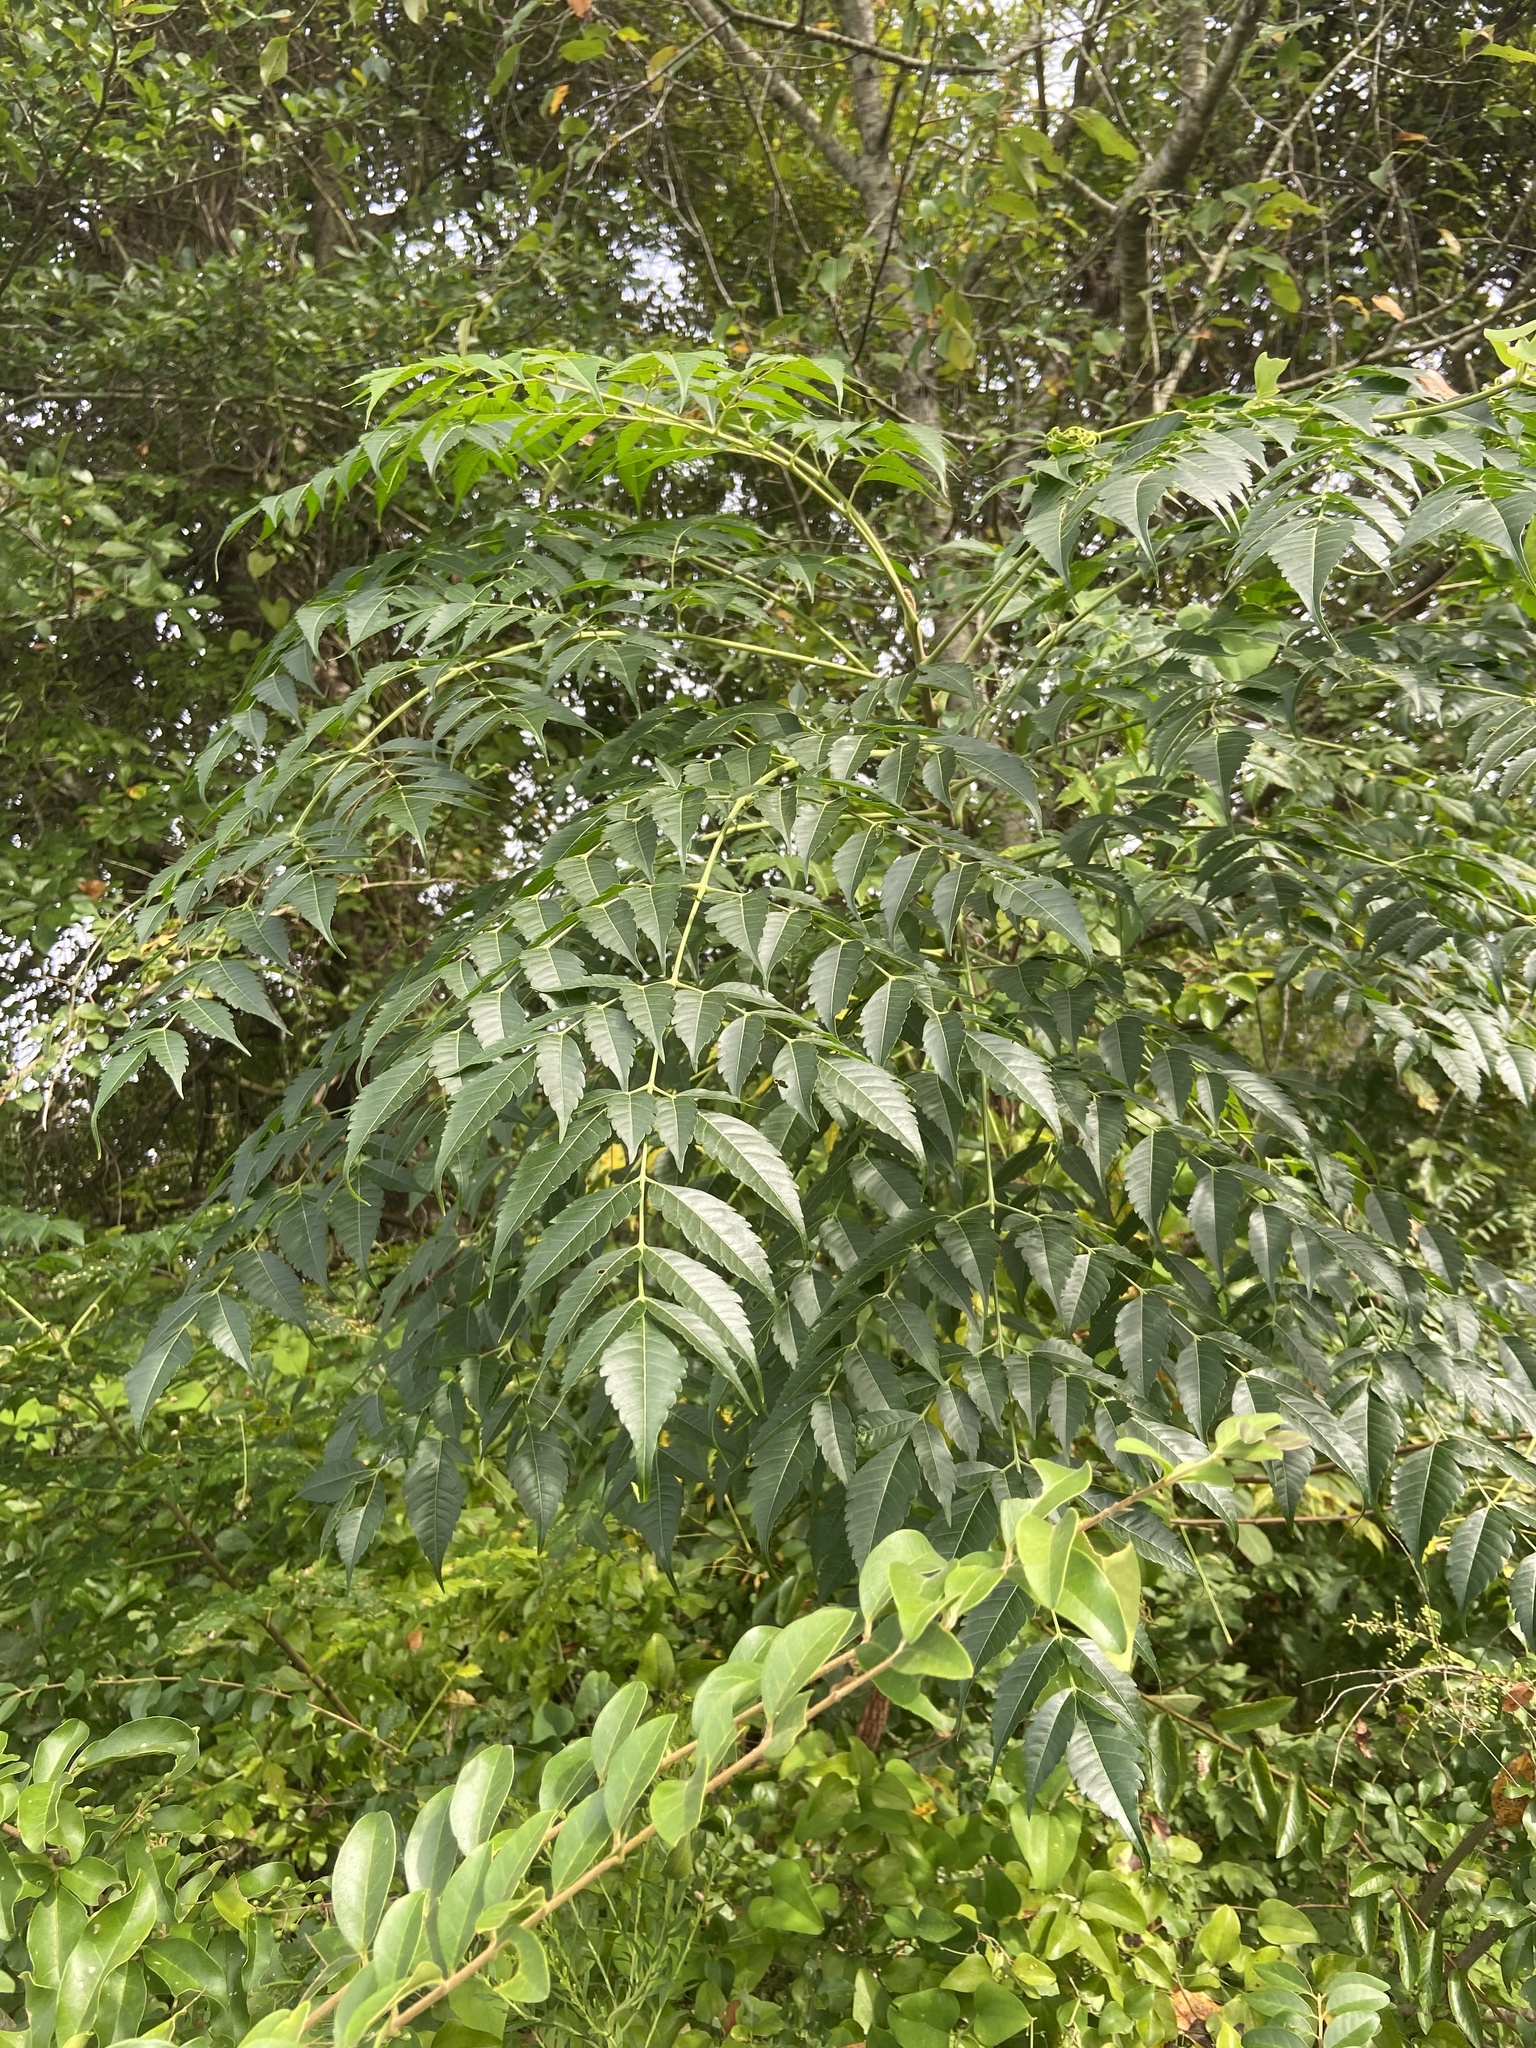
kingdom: Plantae
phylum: Tracheophyta
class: Magnoliopsida
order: Sapindales
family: Meliaceae
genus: Melia
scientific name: Melia azedarach
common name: Chinaberrytree
